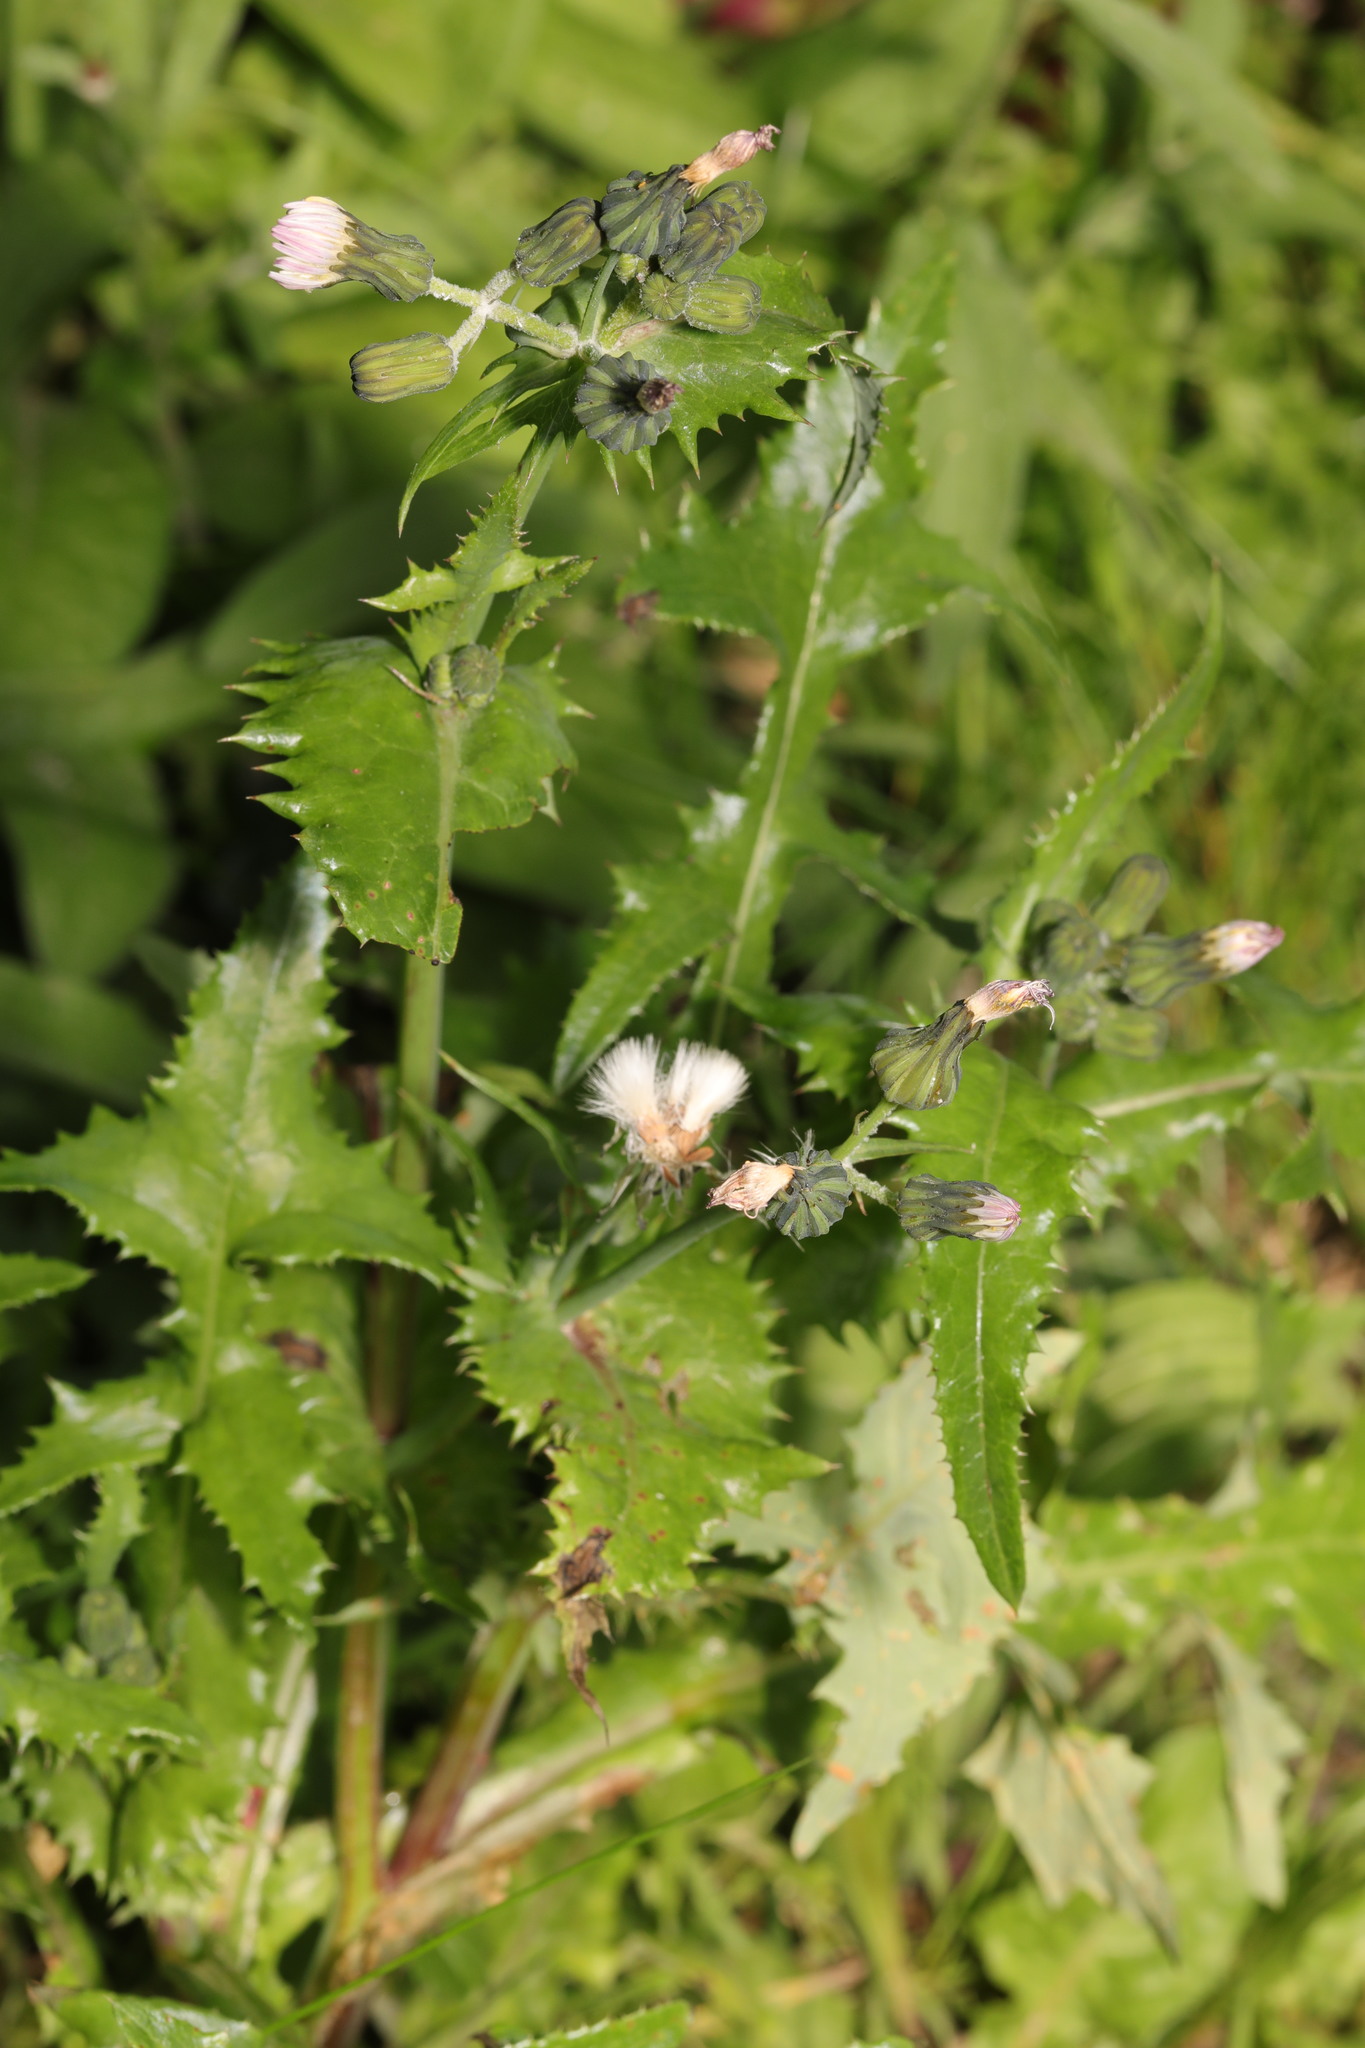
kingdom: Plantae
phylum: Tracheophyta
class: Magnoliopsida
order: Asterales
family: Asteraceae
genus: Sonchus
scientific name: Sonchus asper
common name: Prickly sow-thistle
